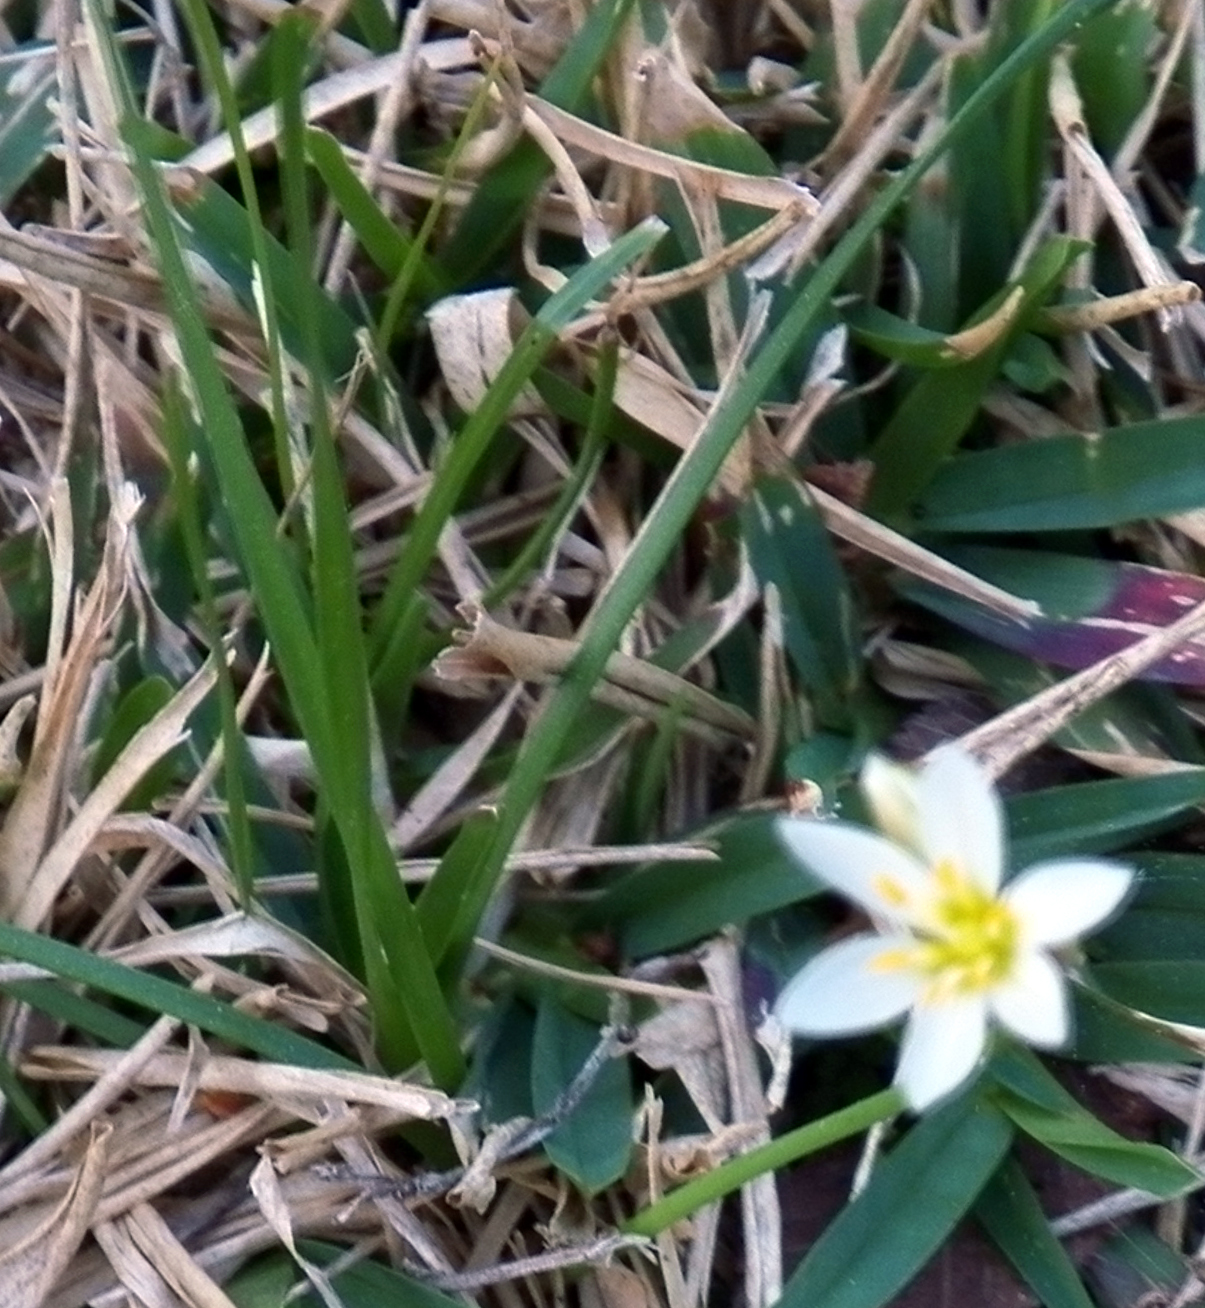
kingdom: Plantae
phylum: Tracheophyta
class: Liliopsida
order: Asparagales
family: Amaryllidaceae
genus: Nothoscordum
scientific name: Nothoscordum bivalve
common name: Crow-poison
